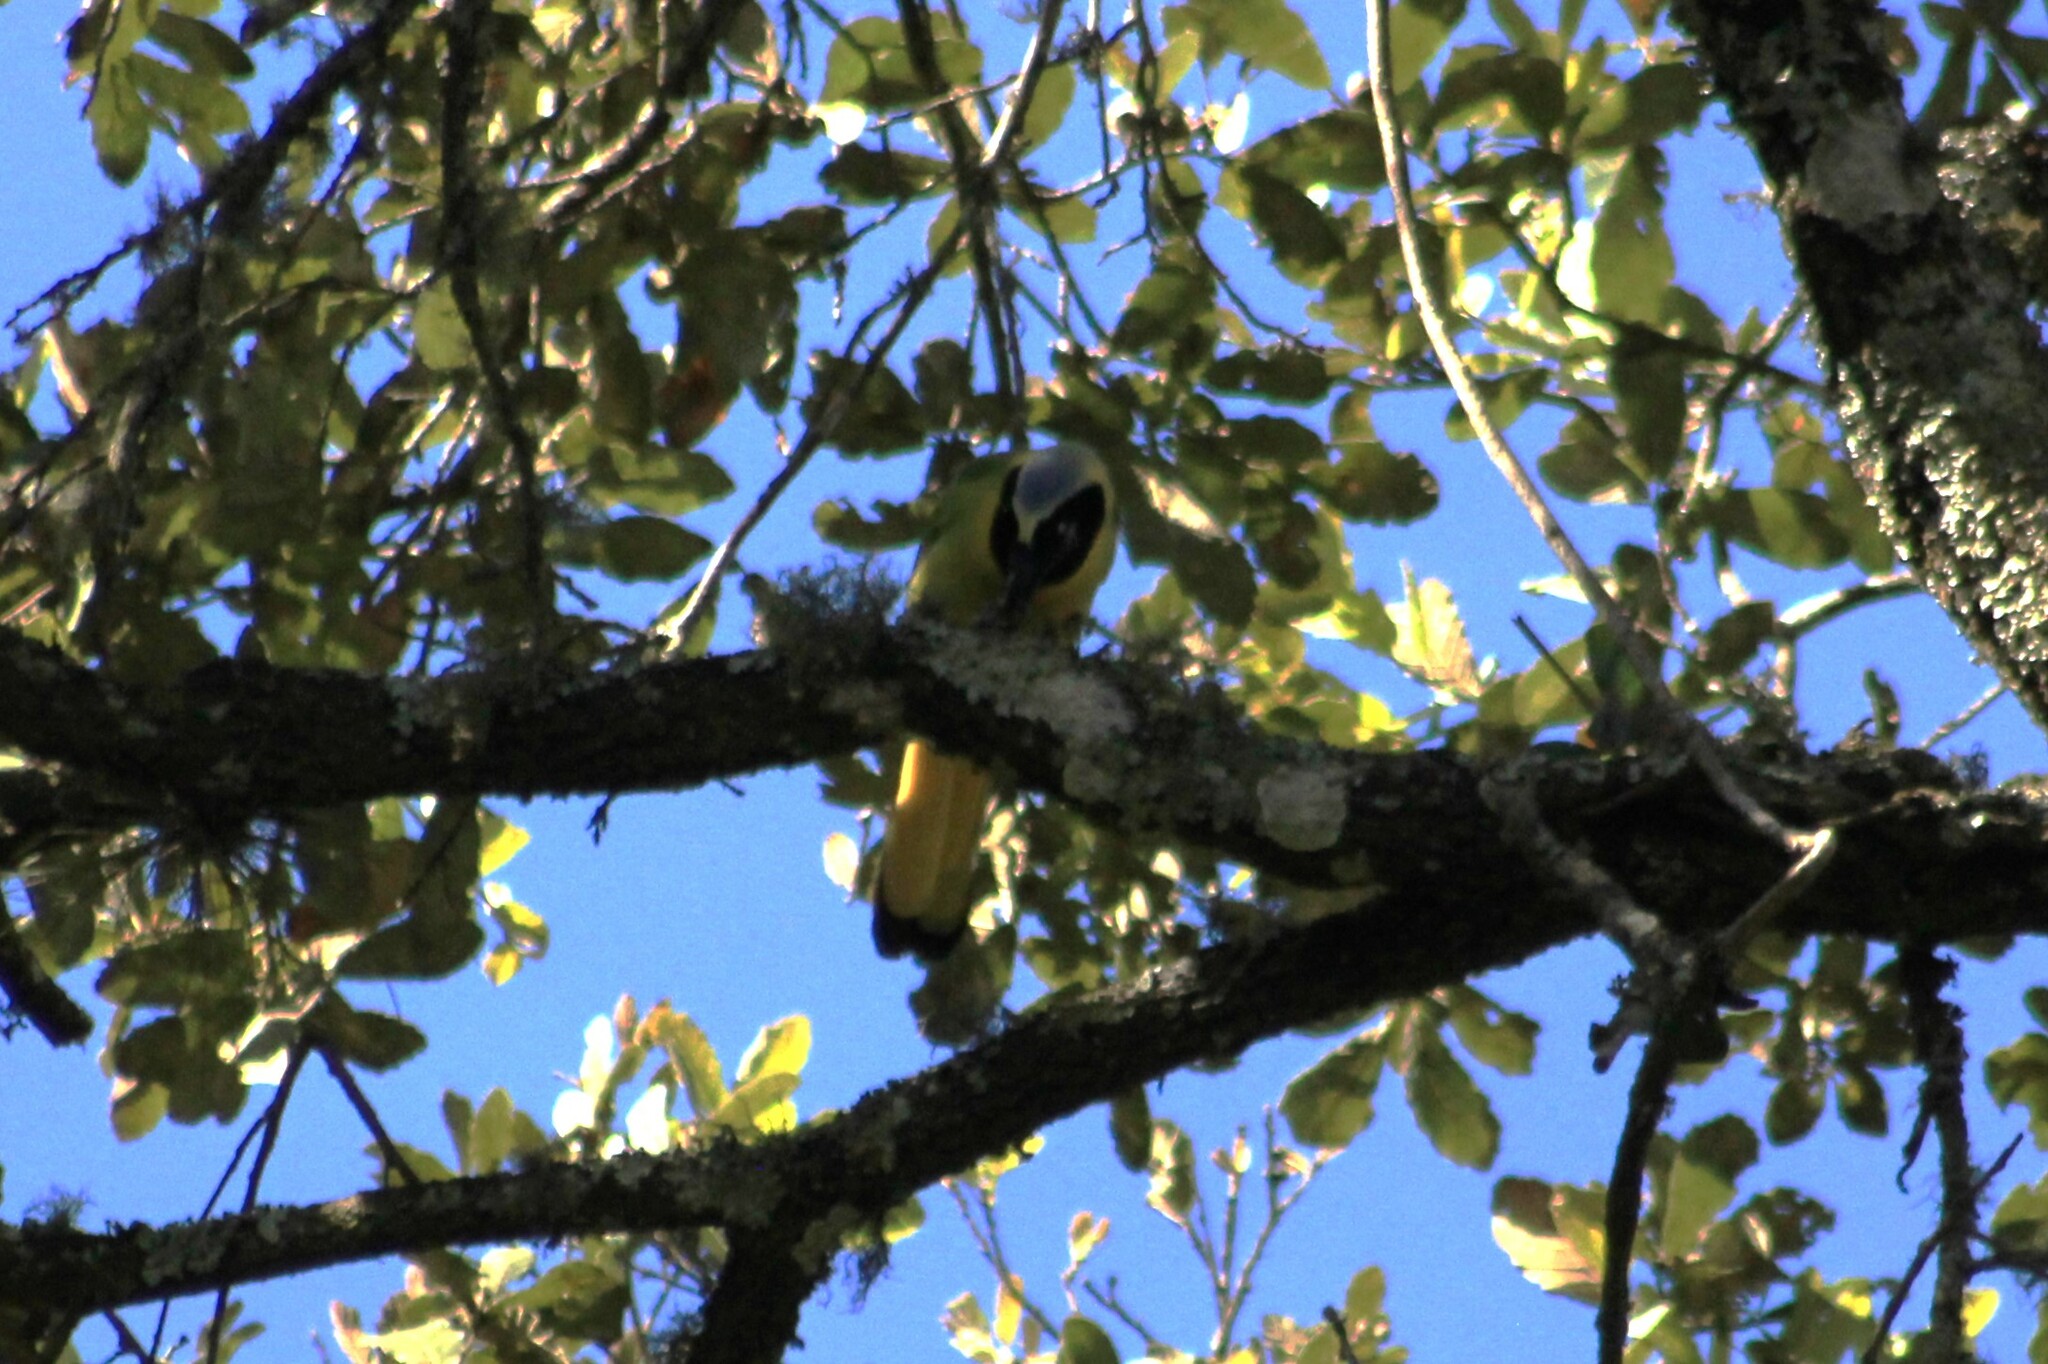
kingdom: Animalia
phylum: Chordata
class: Aves
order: Passeriformes
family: Corvidae
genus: Cyanocorax
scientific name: Cyanocorax yncas
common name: Green jay
